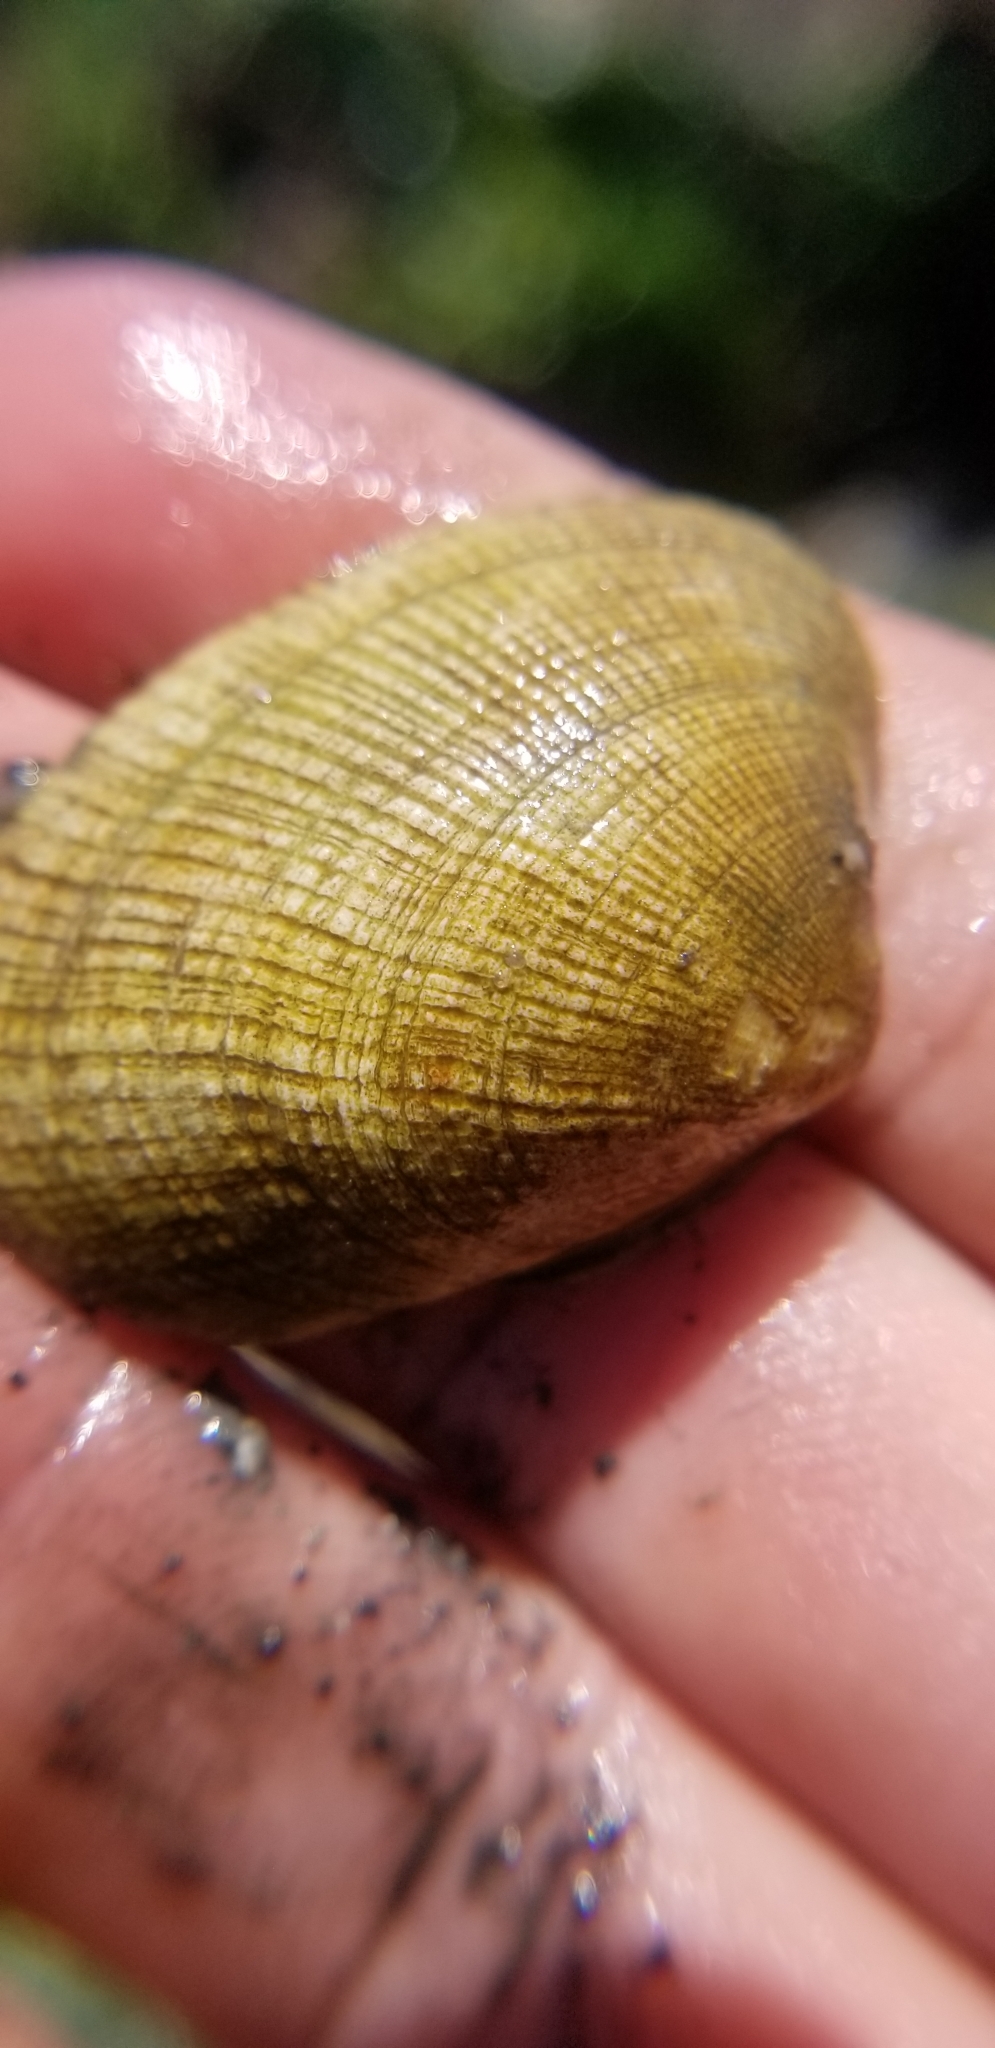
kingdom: Animalia
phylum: Mollusca
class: Bivalvia
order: Venerida
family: Veneridae
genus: Ruditapes
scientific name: Ruditapes philippinarum
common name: Manila clam
